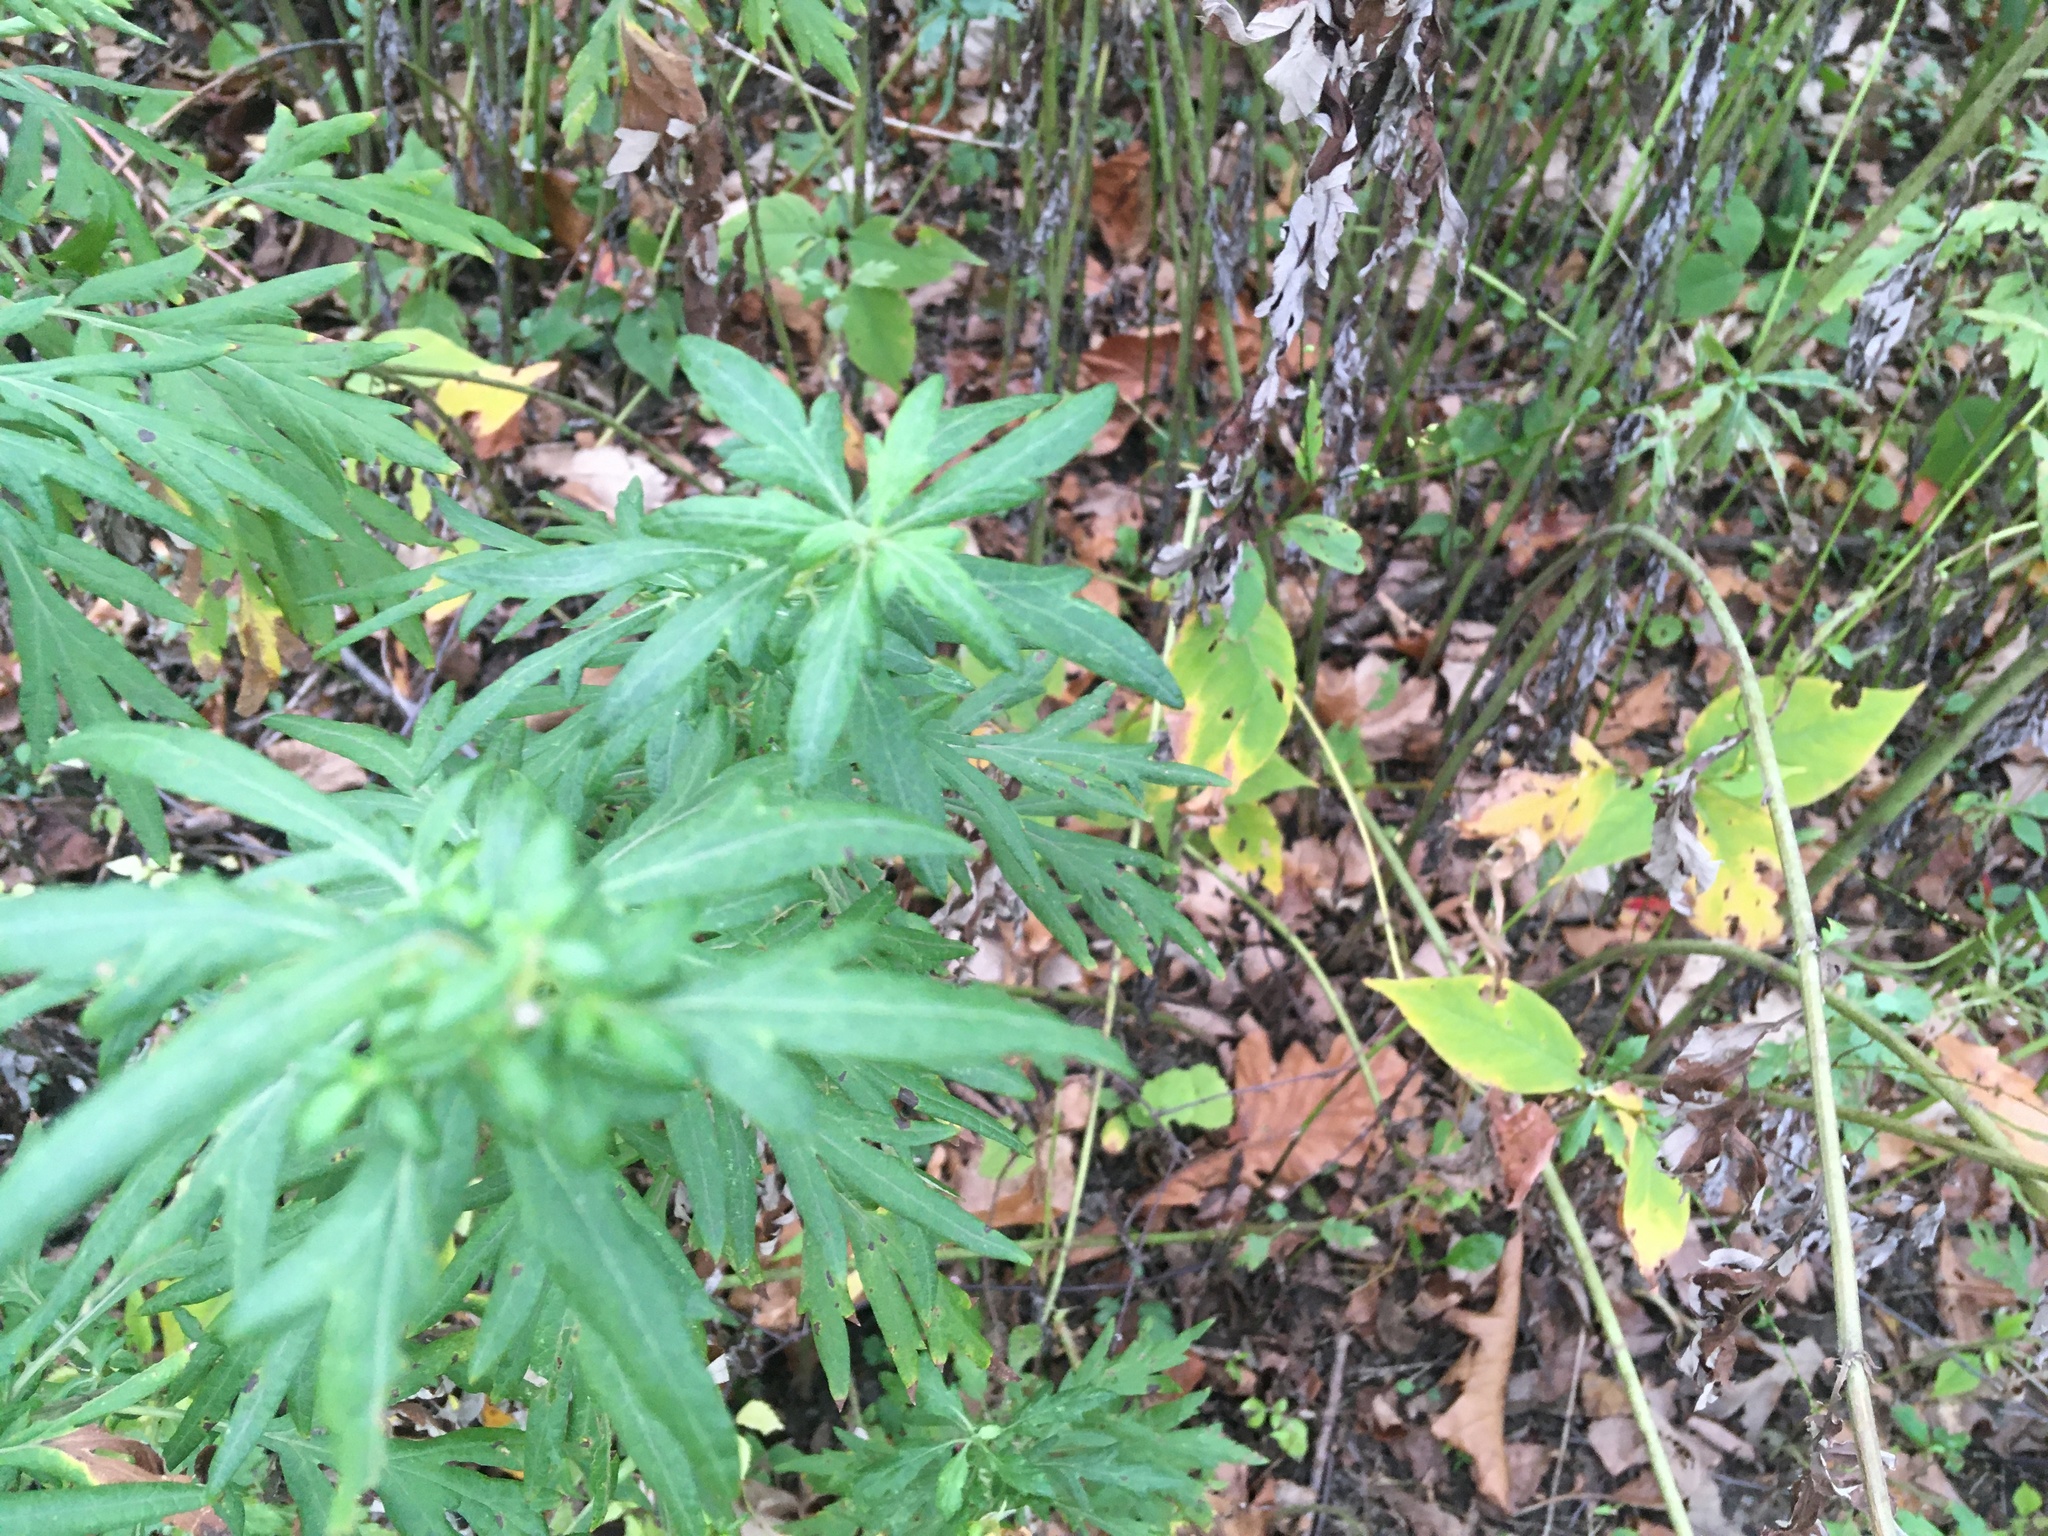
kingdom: Plantae
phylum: Tracheophyta
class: Magnoliopsida
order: Asterales
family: Asteraceae
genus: Artemisia
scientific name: Artemisia vulgaris
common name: Mugwort
